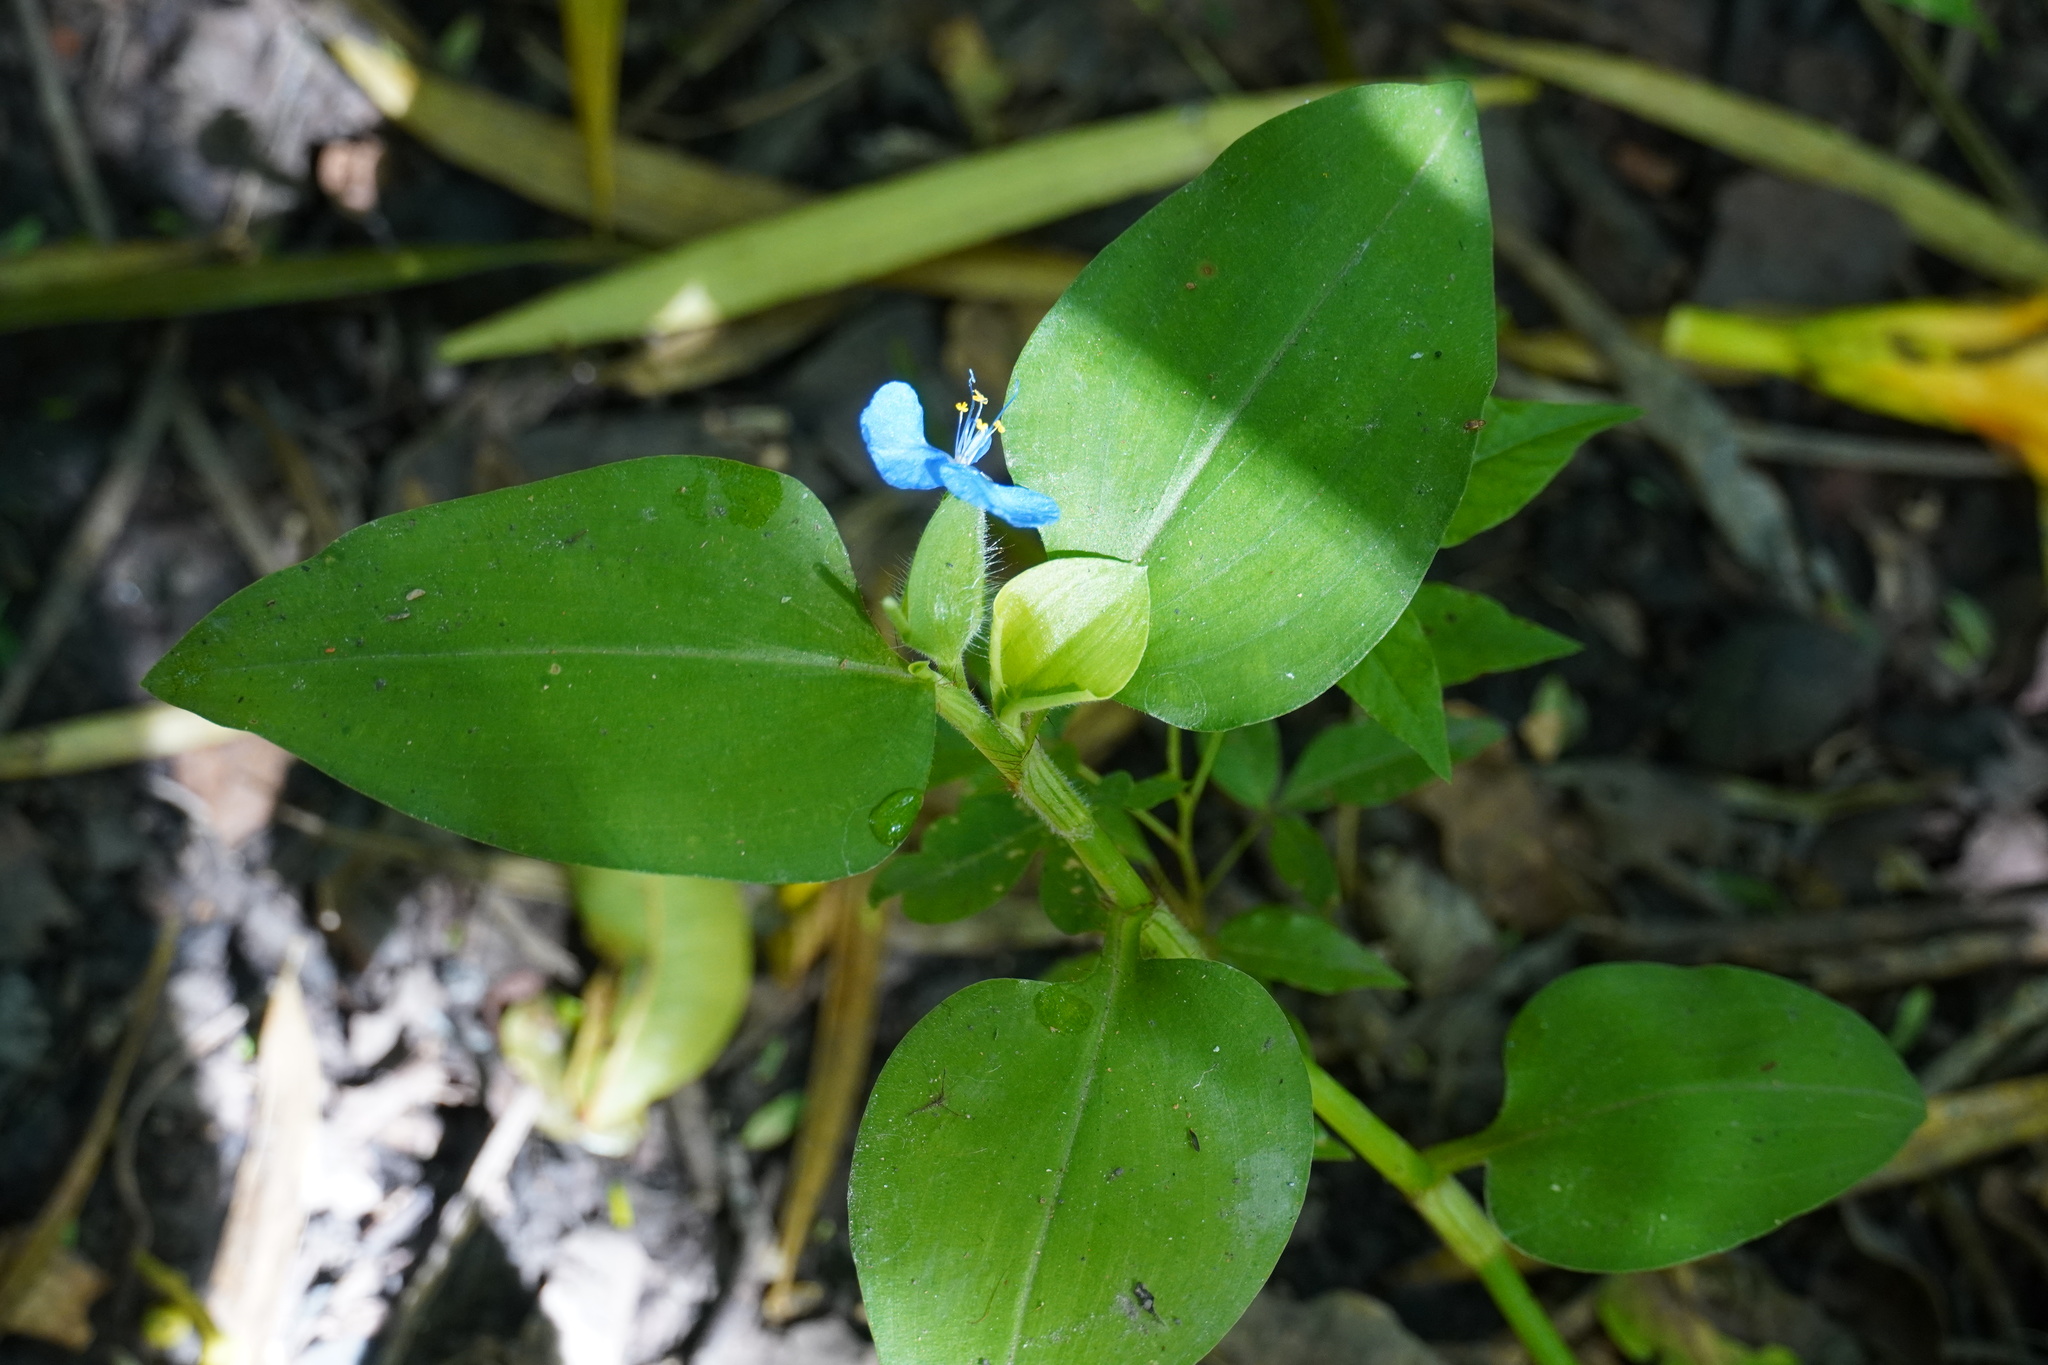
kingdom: Plantae
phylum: Tracheophyta
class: Liliopsida
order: Commelinales
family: Commelinaceae
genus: Commelina
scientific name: Commelina benghalensis
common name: Jio
